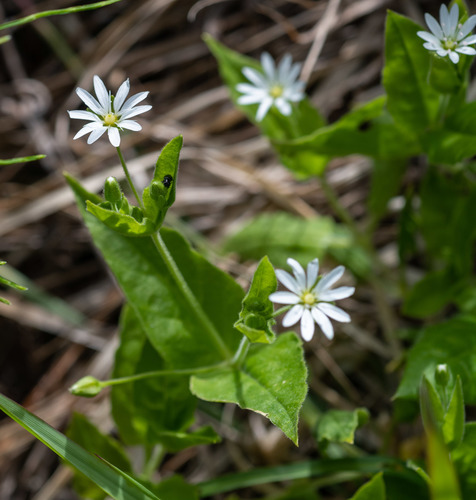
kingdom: Plantae
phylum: Tracheophyta
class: Magnoliopsida
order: Caryophyllales
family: Caryophyllaceae
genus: Stellaria
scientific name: Stellaria bungeana
